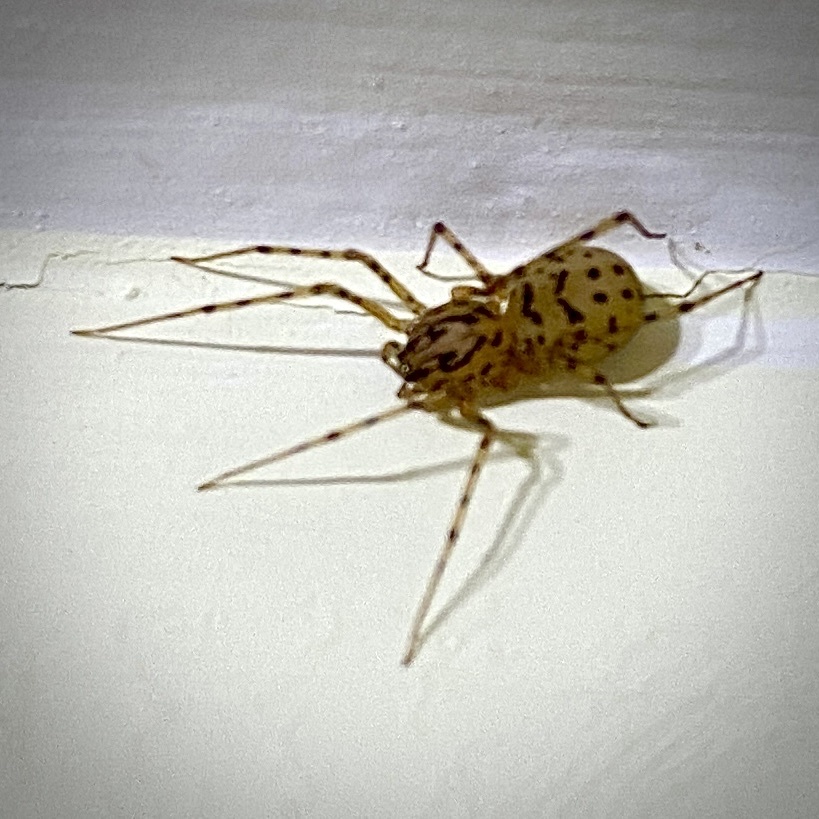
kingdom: Animalia
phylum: Arthropoda
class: Arachnida
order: Araneae
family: Scytodidae
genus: Scytodes
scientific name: Scytodes thoracica
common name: Spitting spider
